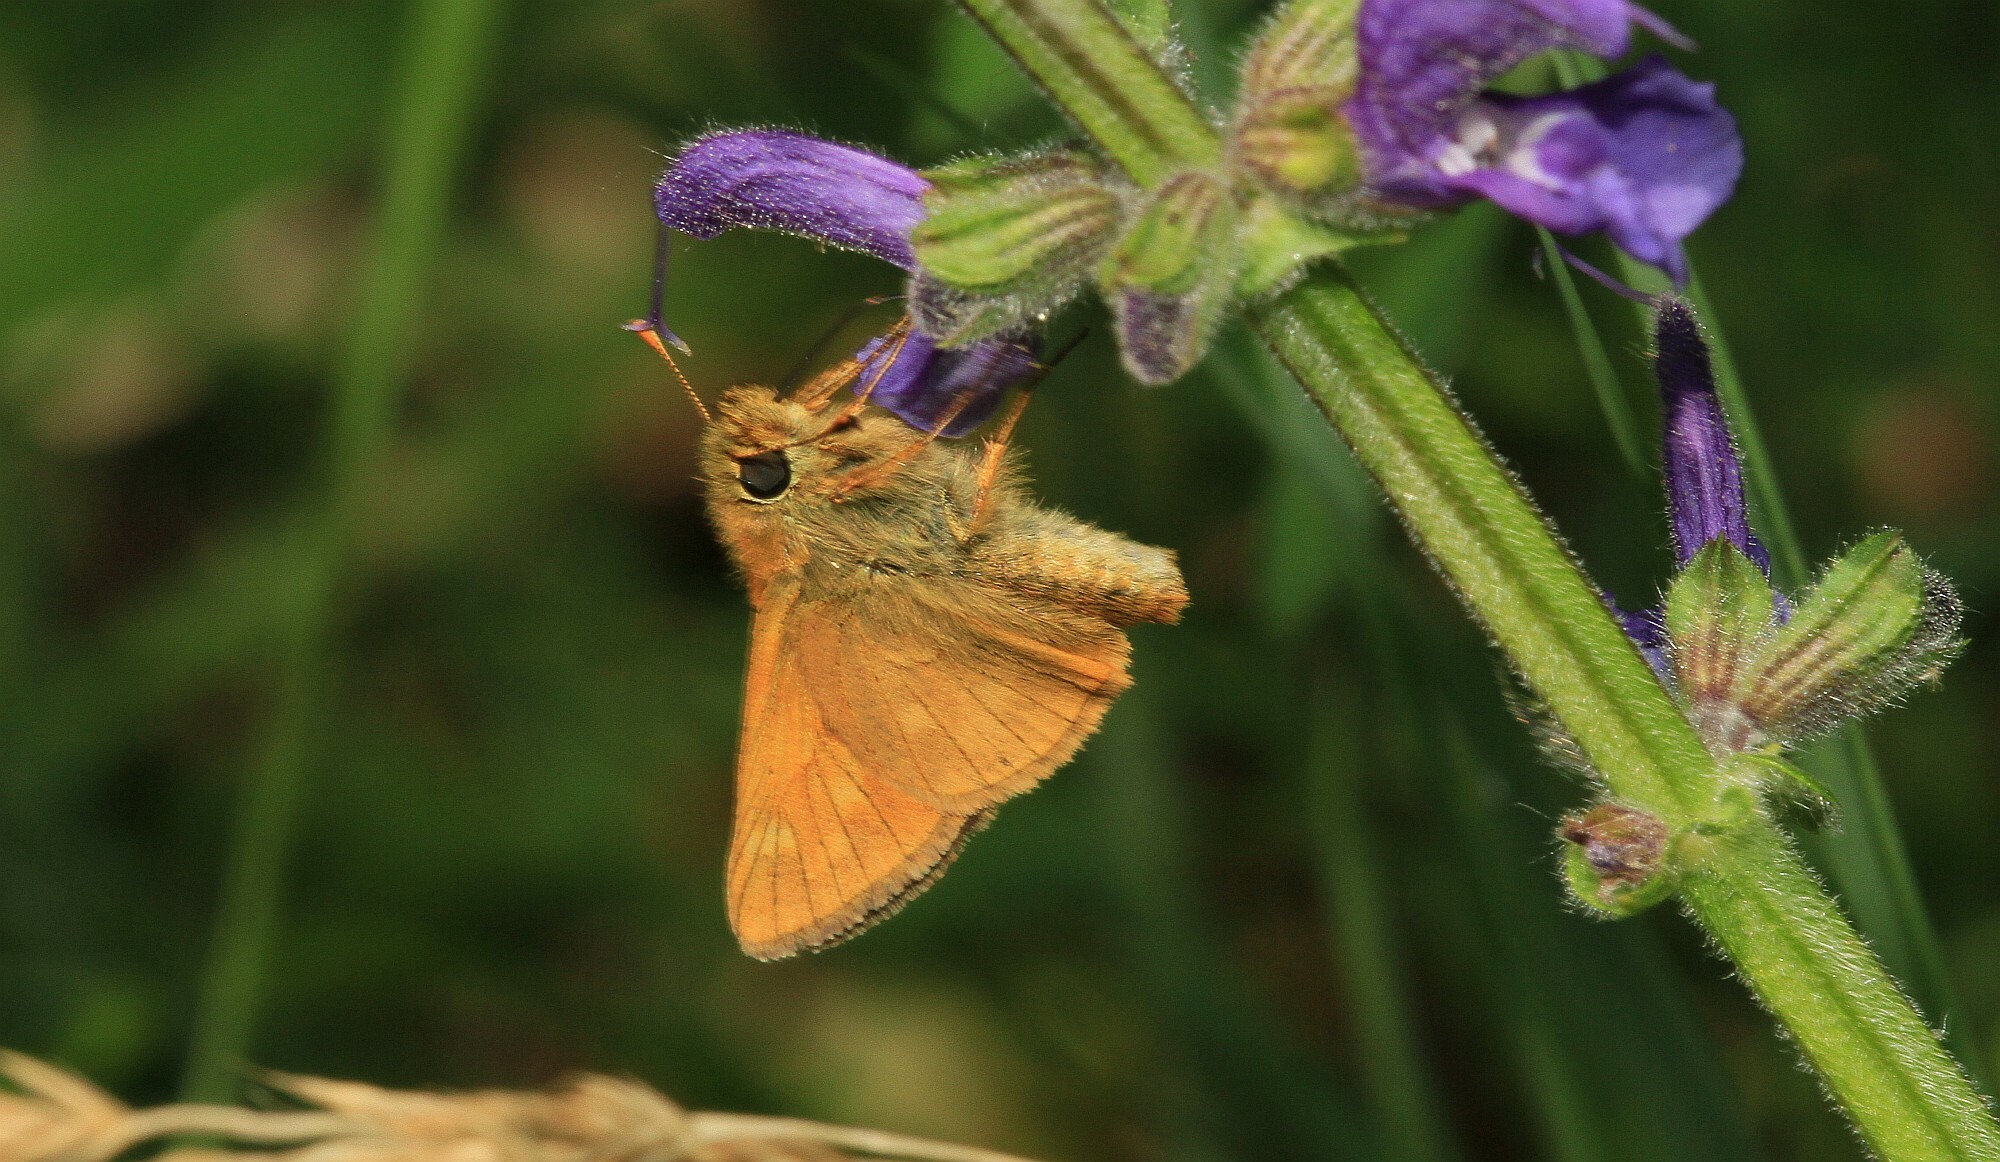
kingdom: Animalia
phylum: Arthropoda
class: Insecta
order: Lepidoptera
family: Hesperiidae
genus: Ochlodes
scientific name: Ochlodes venata
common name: Large skipper
